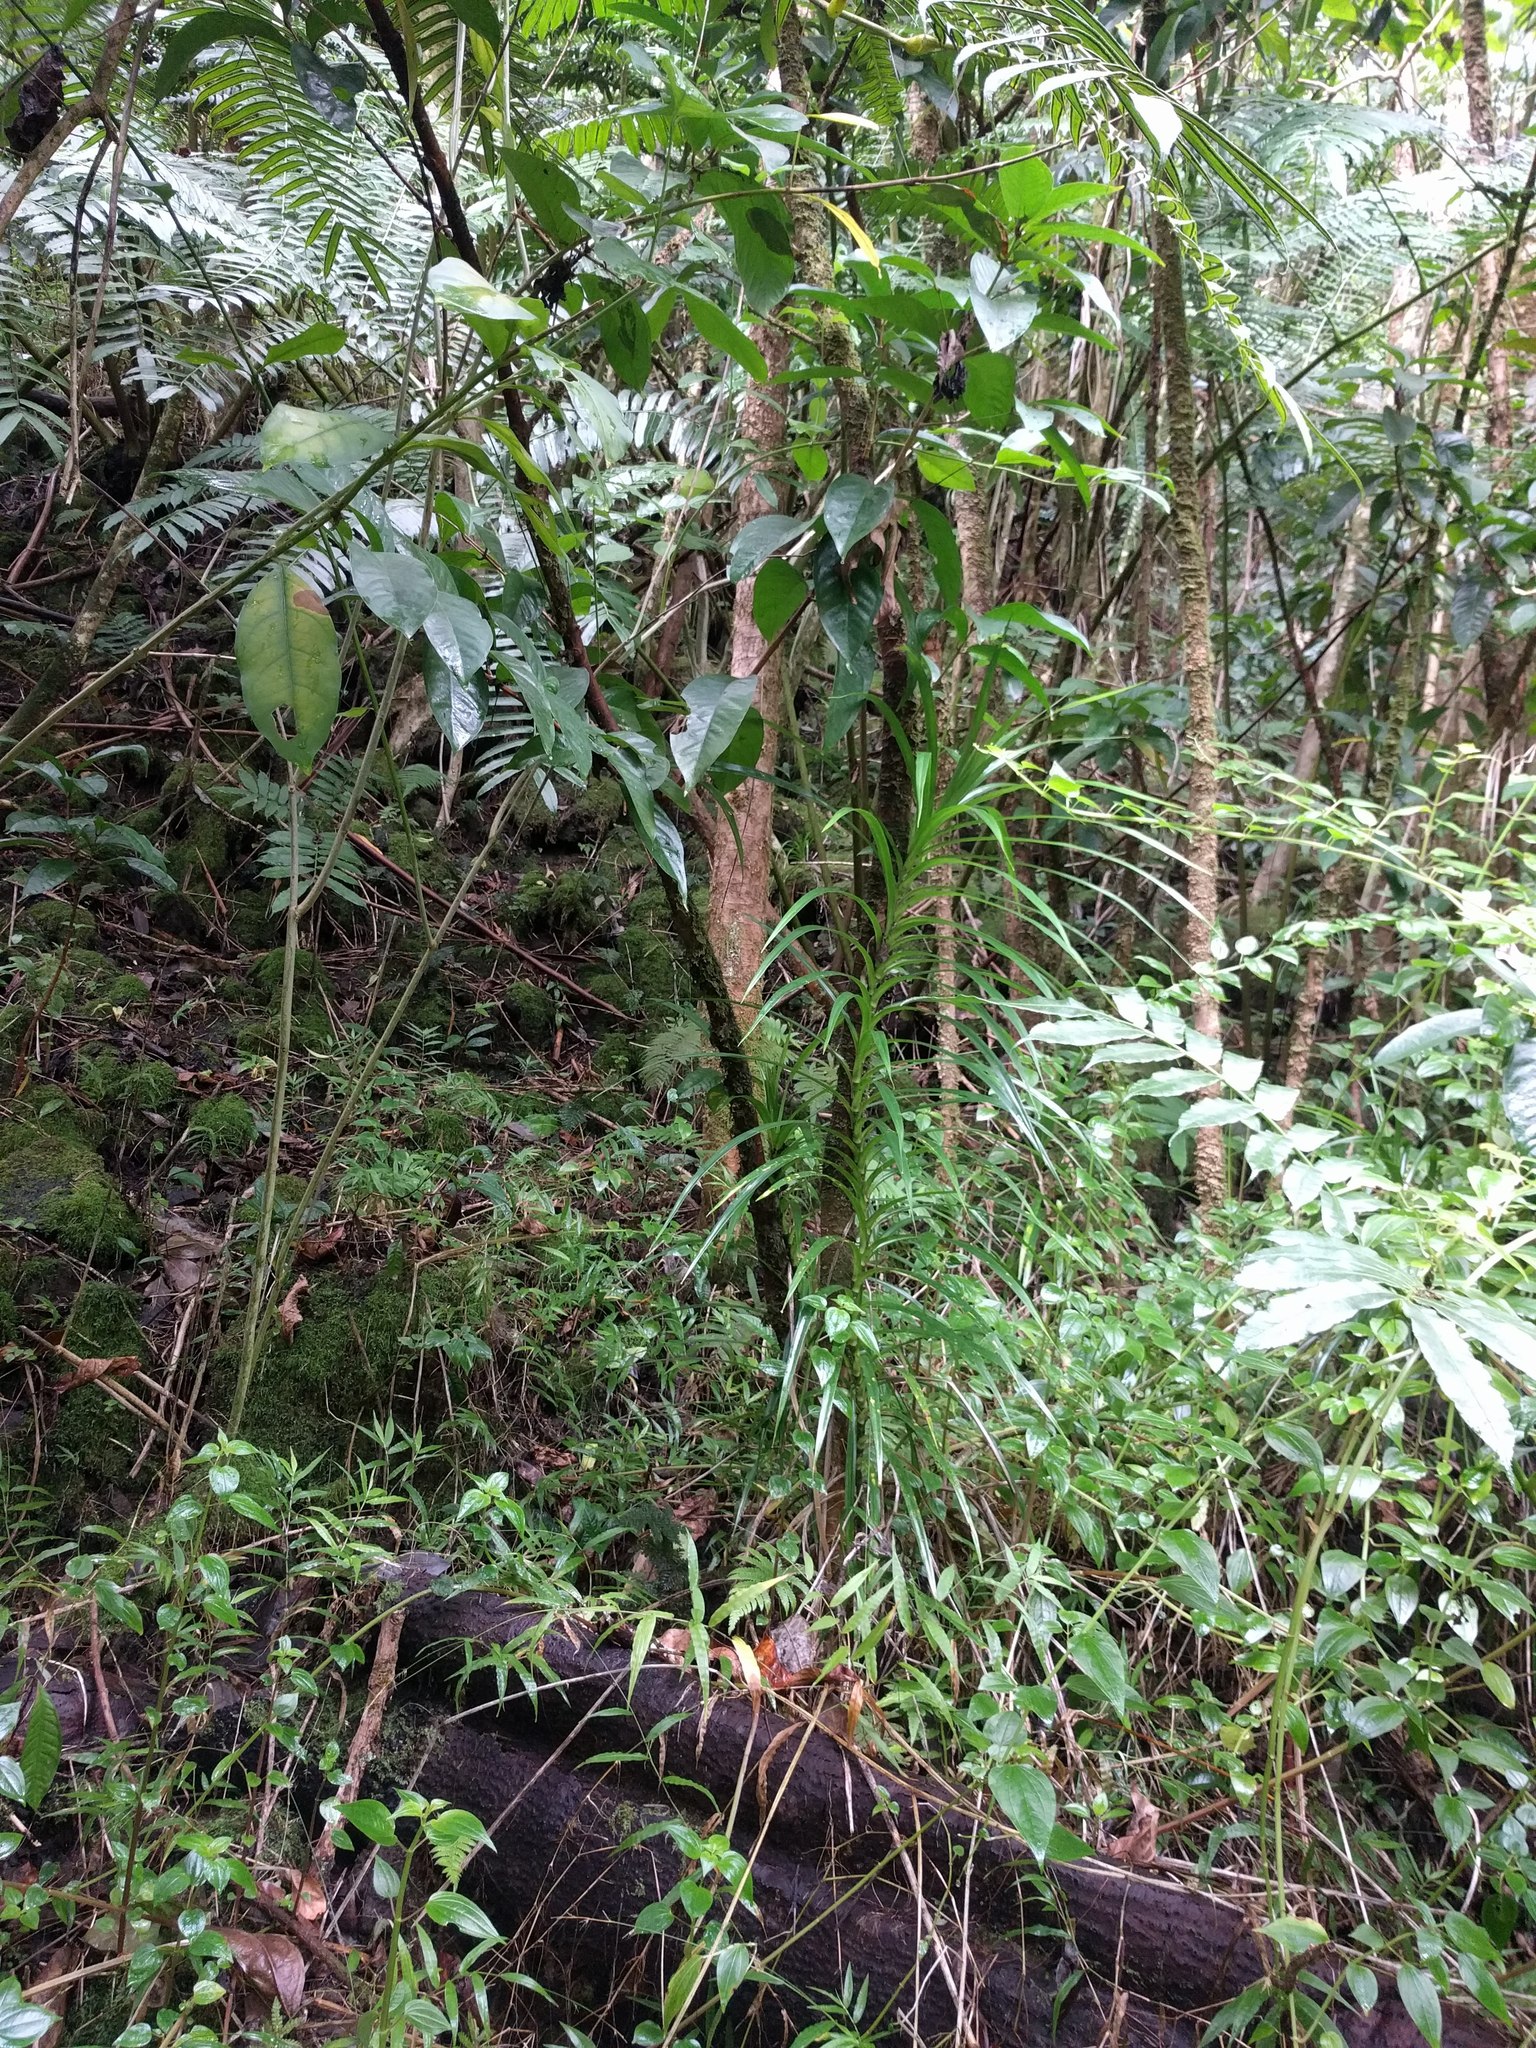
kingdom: Plantae
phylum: Tracheophyta
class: Liliopsida
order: Pandanales
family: Pandanaceae
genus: Freycinetia
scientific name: Freycinetia arborea
